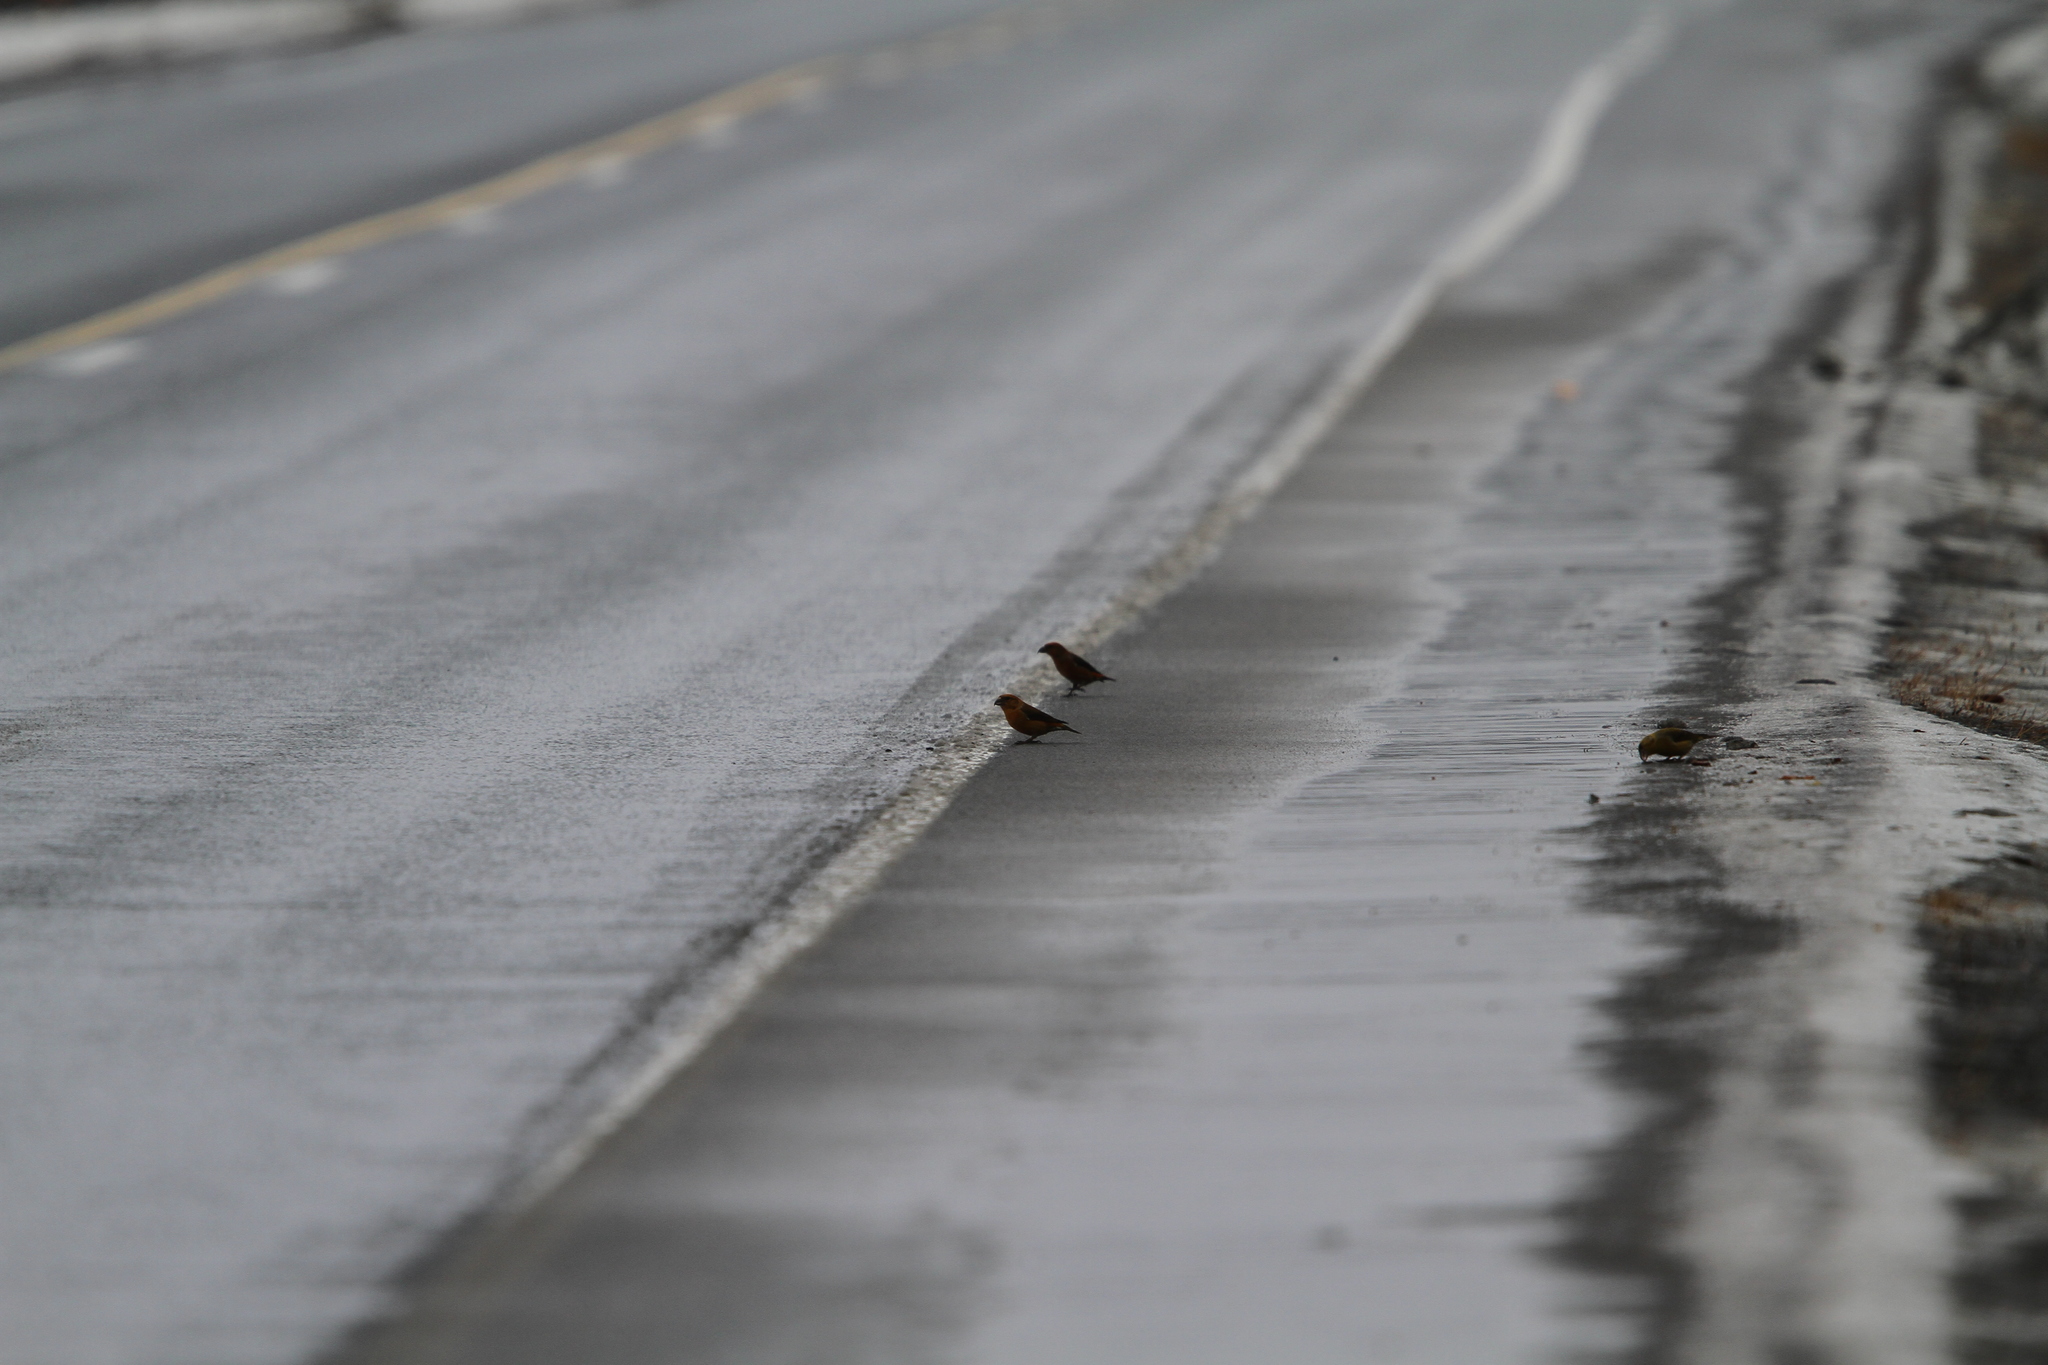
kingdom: Animalia
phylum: Chordata
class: Aves
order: Passeriformes
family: Fringillidae
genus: Loxia
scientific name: Loxia curvirostra
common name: Red crossbill
